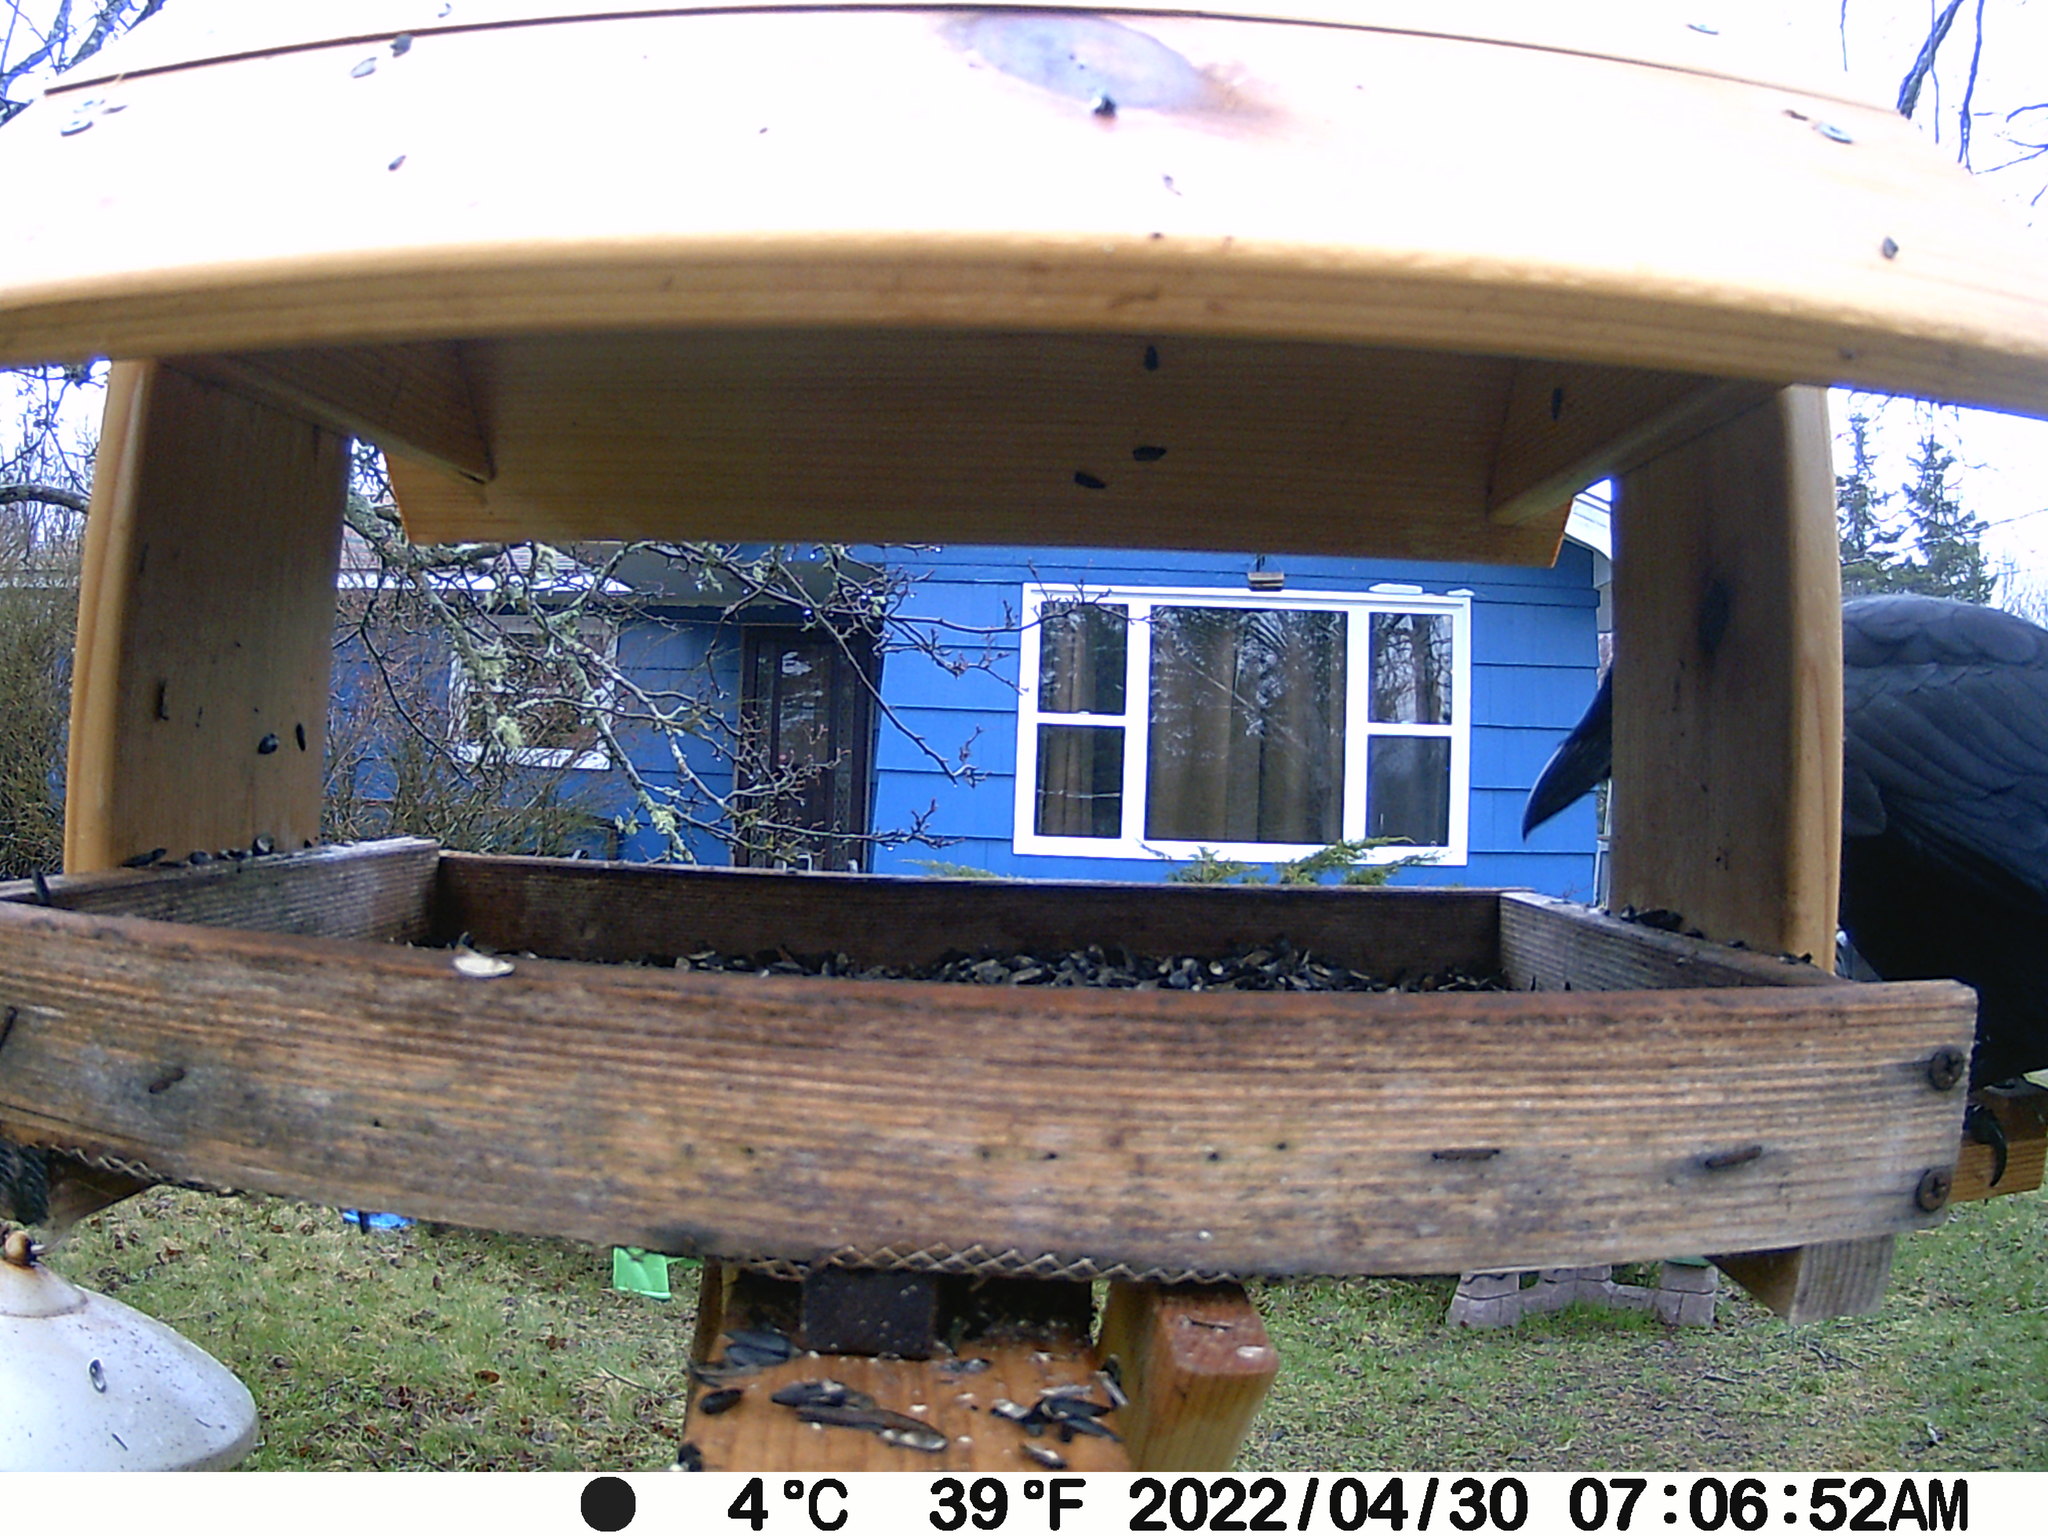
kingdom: Animalia
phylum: Chordata
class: Aves
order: Passeriformes
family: Corvidae
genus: Corvus
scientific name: Corvus brachyrhynchos
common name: American crow
